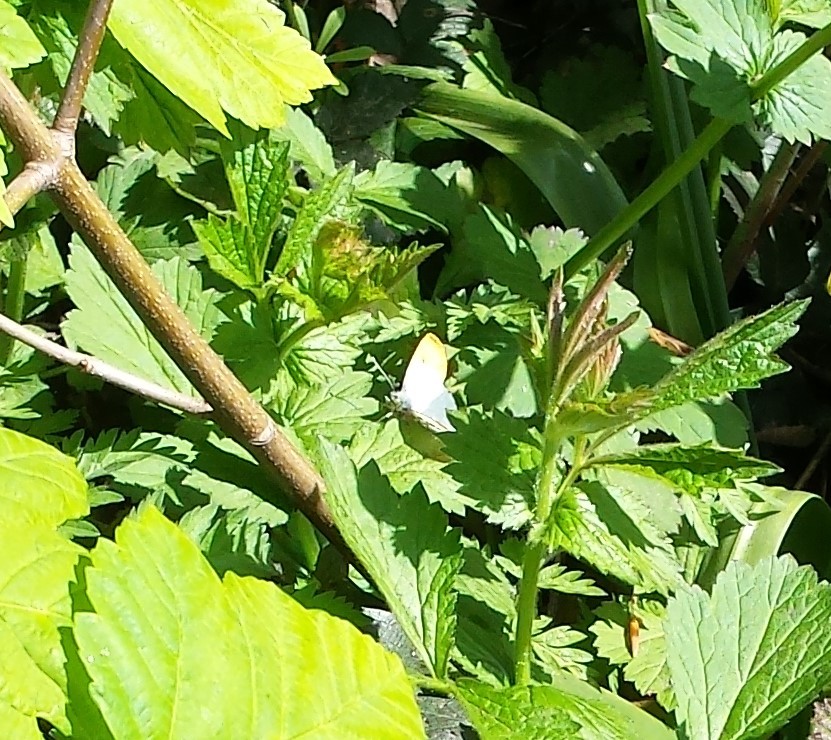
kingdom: Animalia
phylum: Arthropoda
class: Insecta
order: Lepidoptera
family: Pieridae
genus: Anthocharis
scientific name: Anthocharis cardamines
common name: Orange-tip
